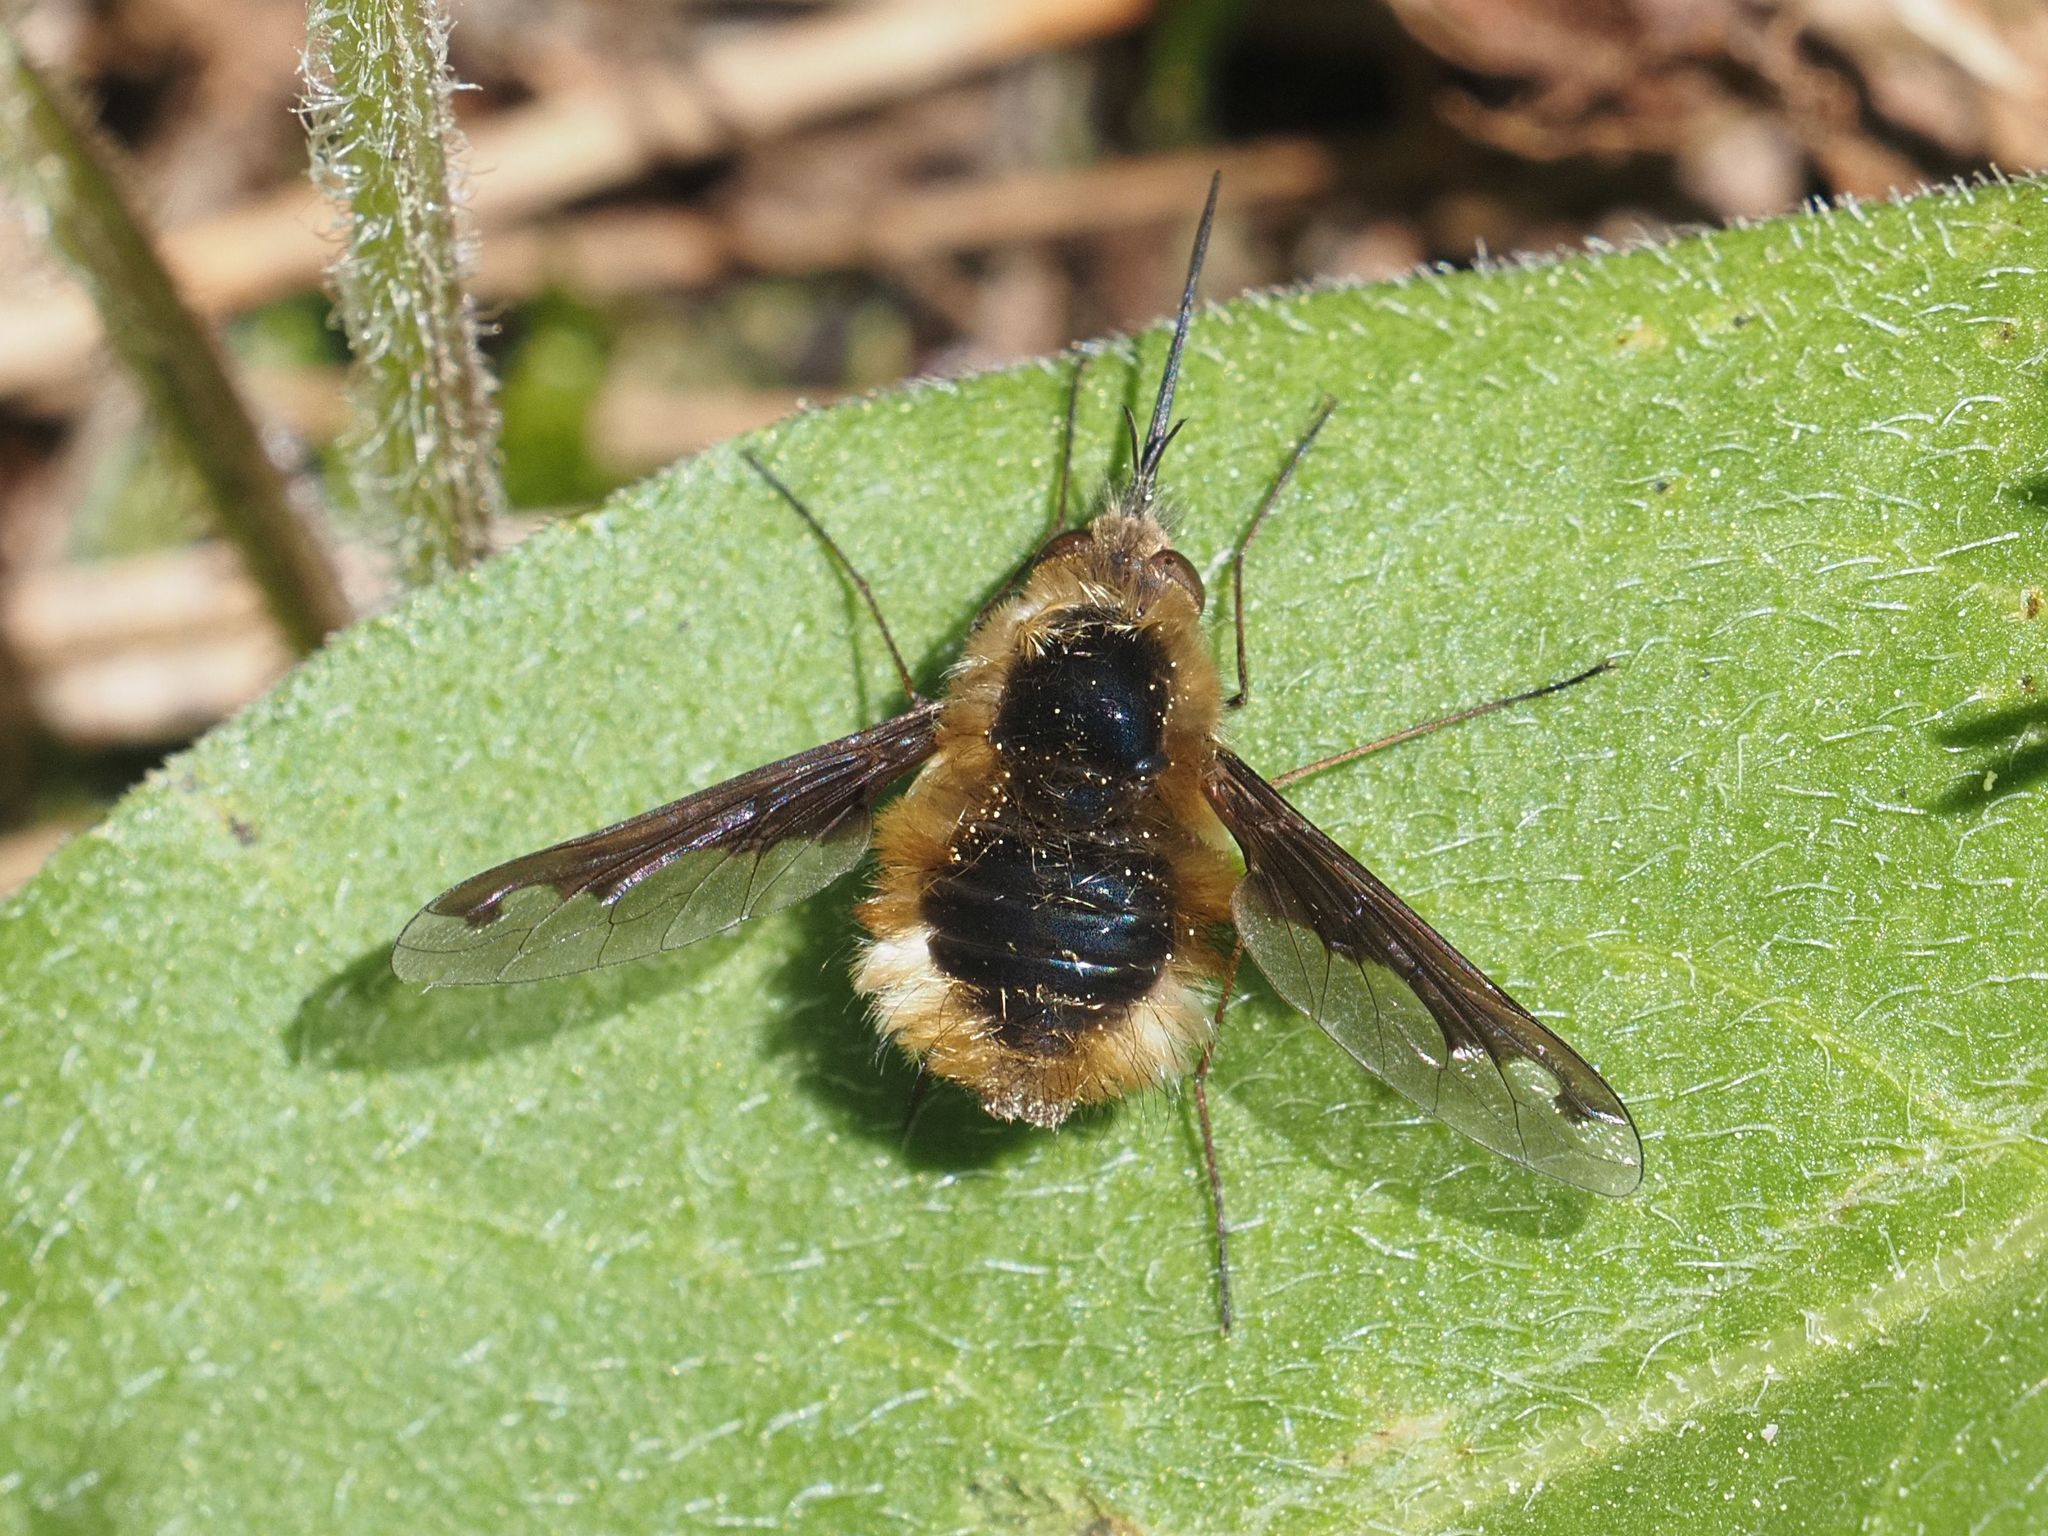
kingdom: Animalia
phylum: Arthropoda
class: Insecta
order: Diptera
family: Bombyliidae
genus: Bombylius
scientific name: Bombylius major
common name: Bee fly
